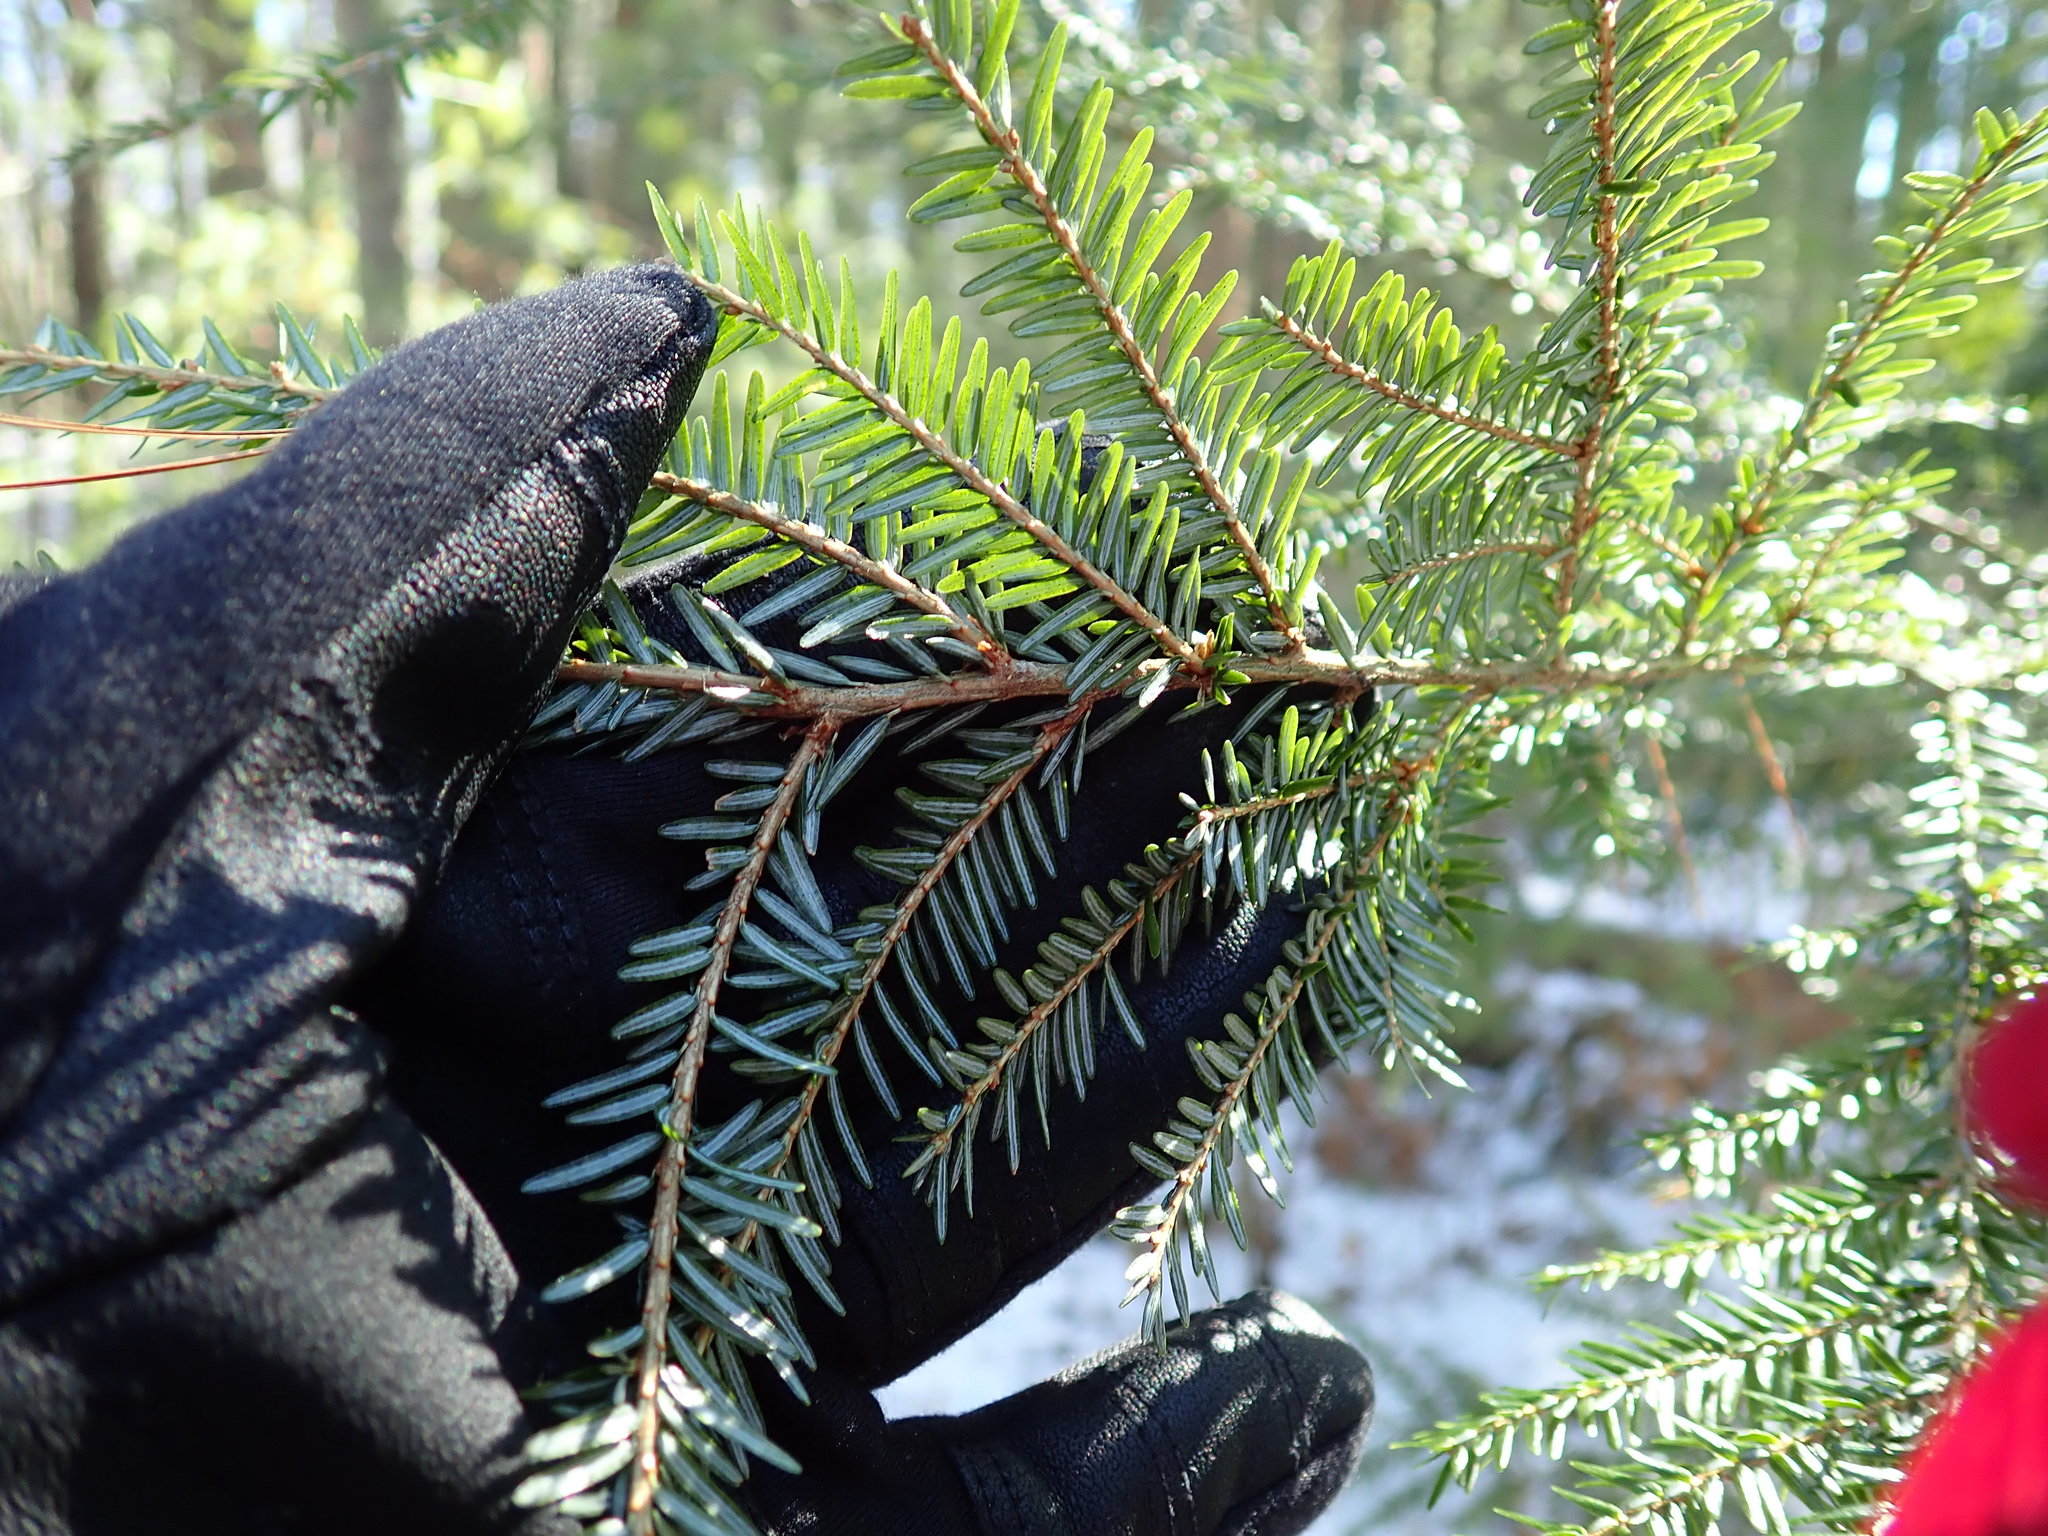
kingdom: Plantae
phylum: Tracheophyta
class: Pinopsida
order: Pinales
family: Pinaceae
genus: Tsuga
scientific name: Tsuga canadensis
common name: Eastern hemlock
